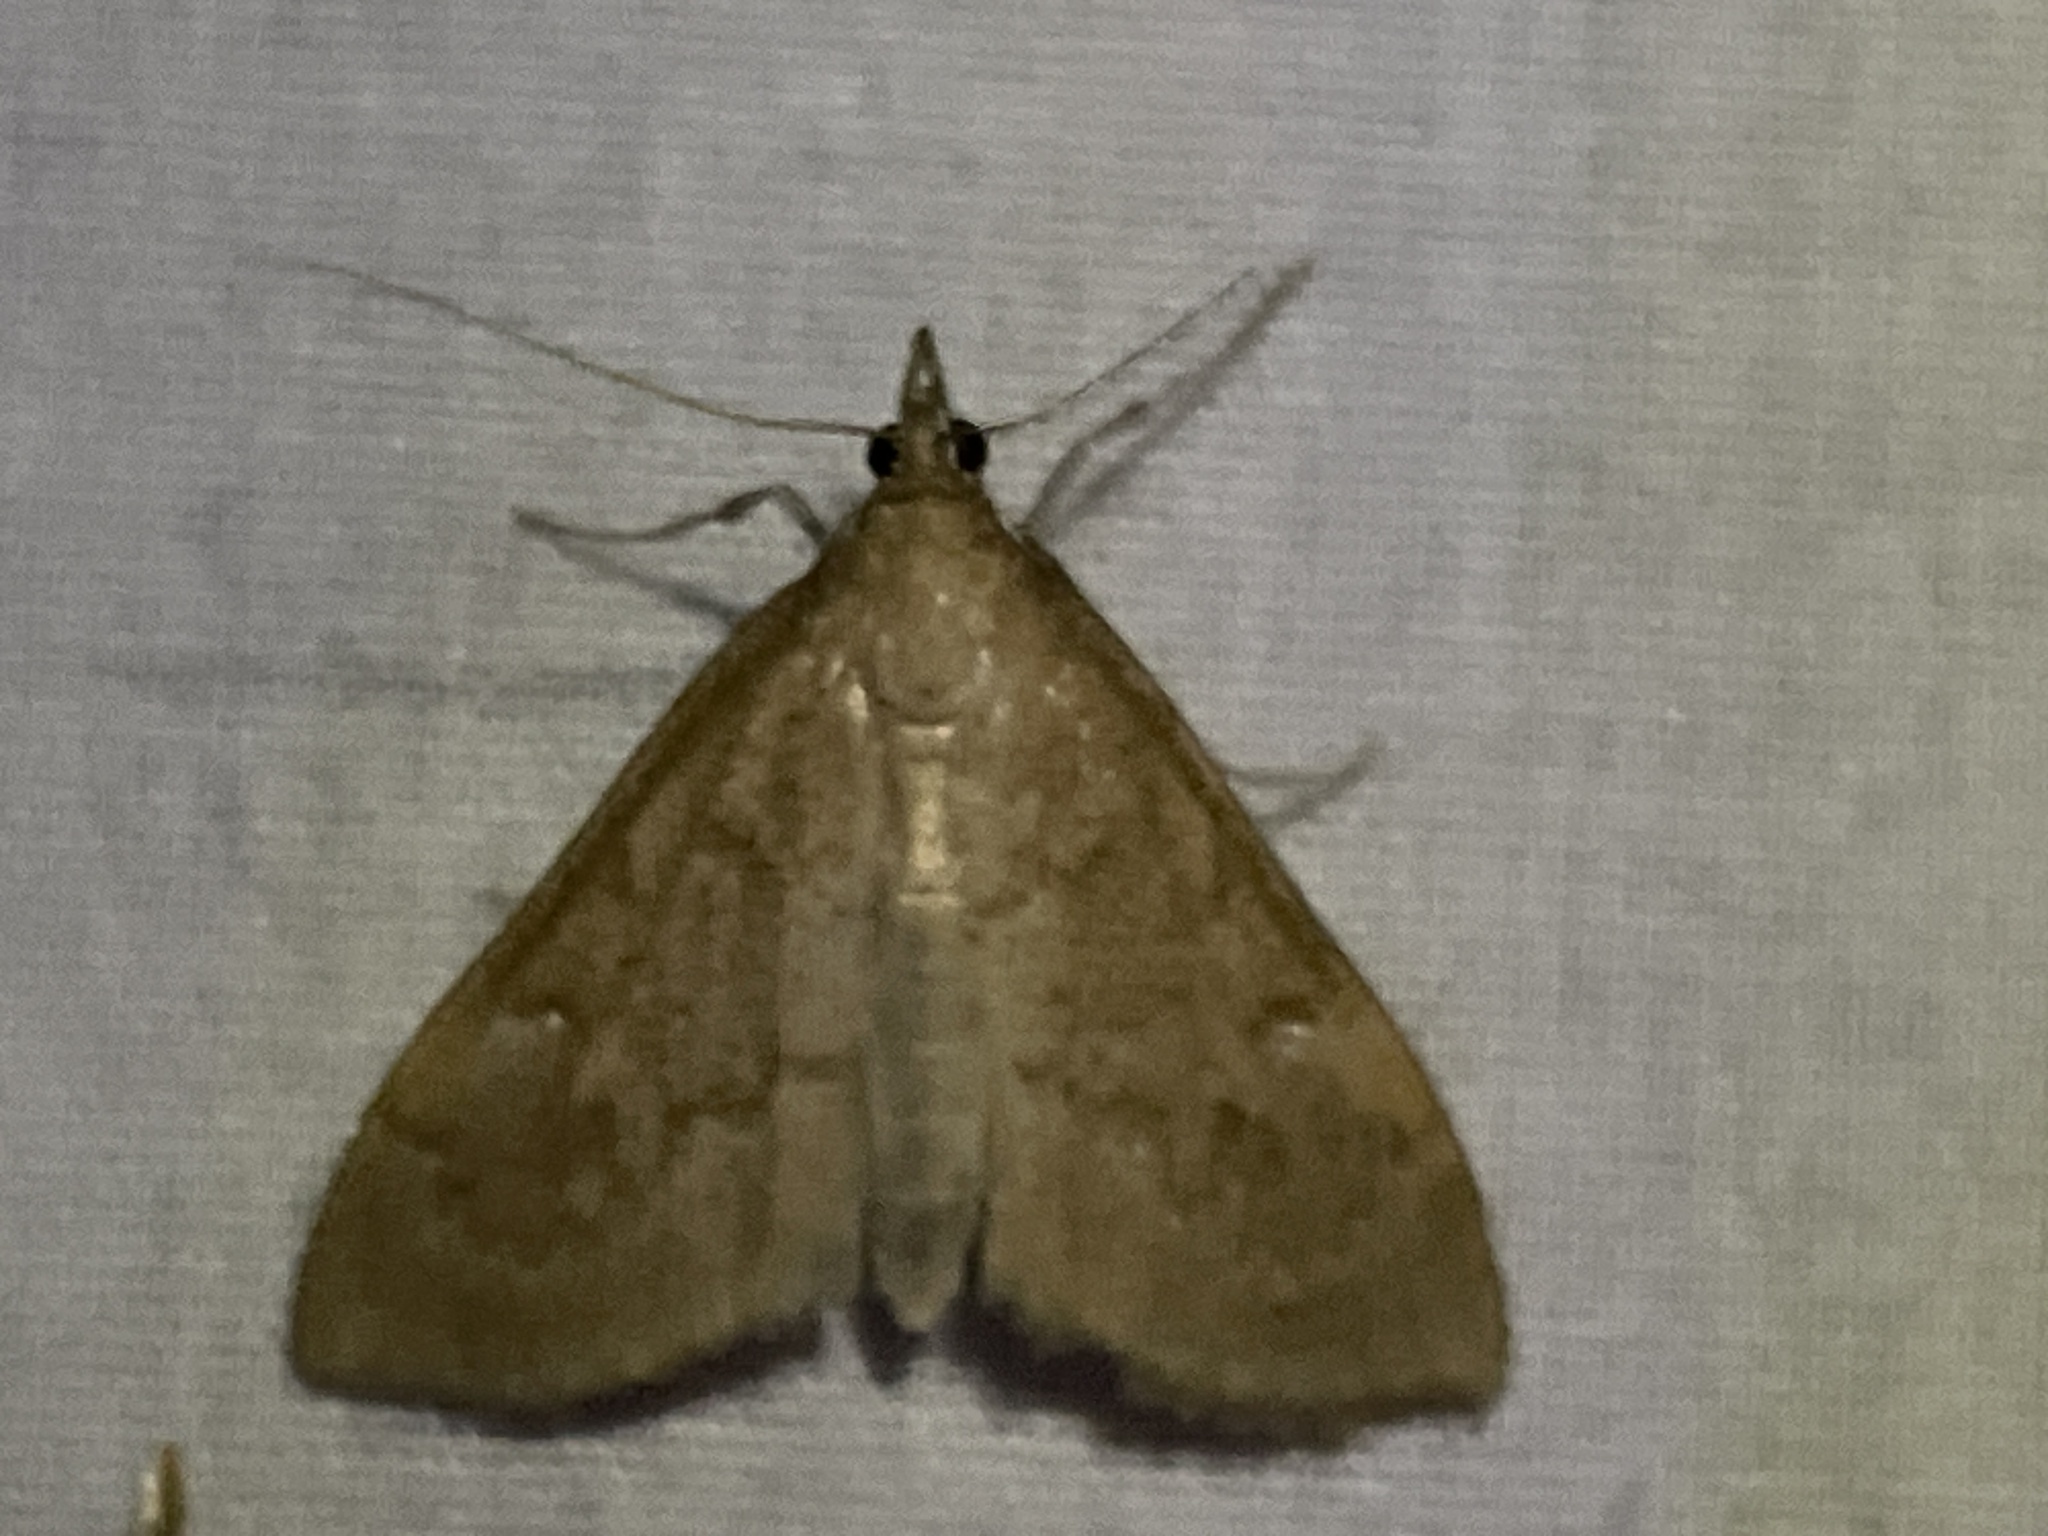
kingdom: Animalia
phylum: Arthropoda
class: Insecta
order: Lepidoptera
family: Crambidae
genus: Saucrobotys
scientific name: Saucrobotys futilalis
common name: Dogbane saucrobotys moth
